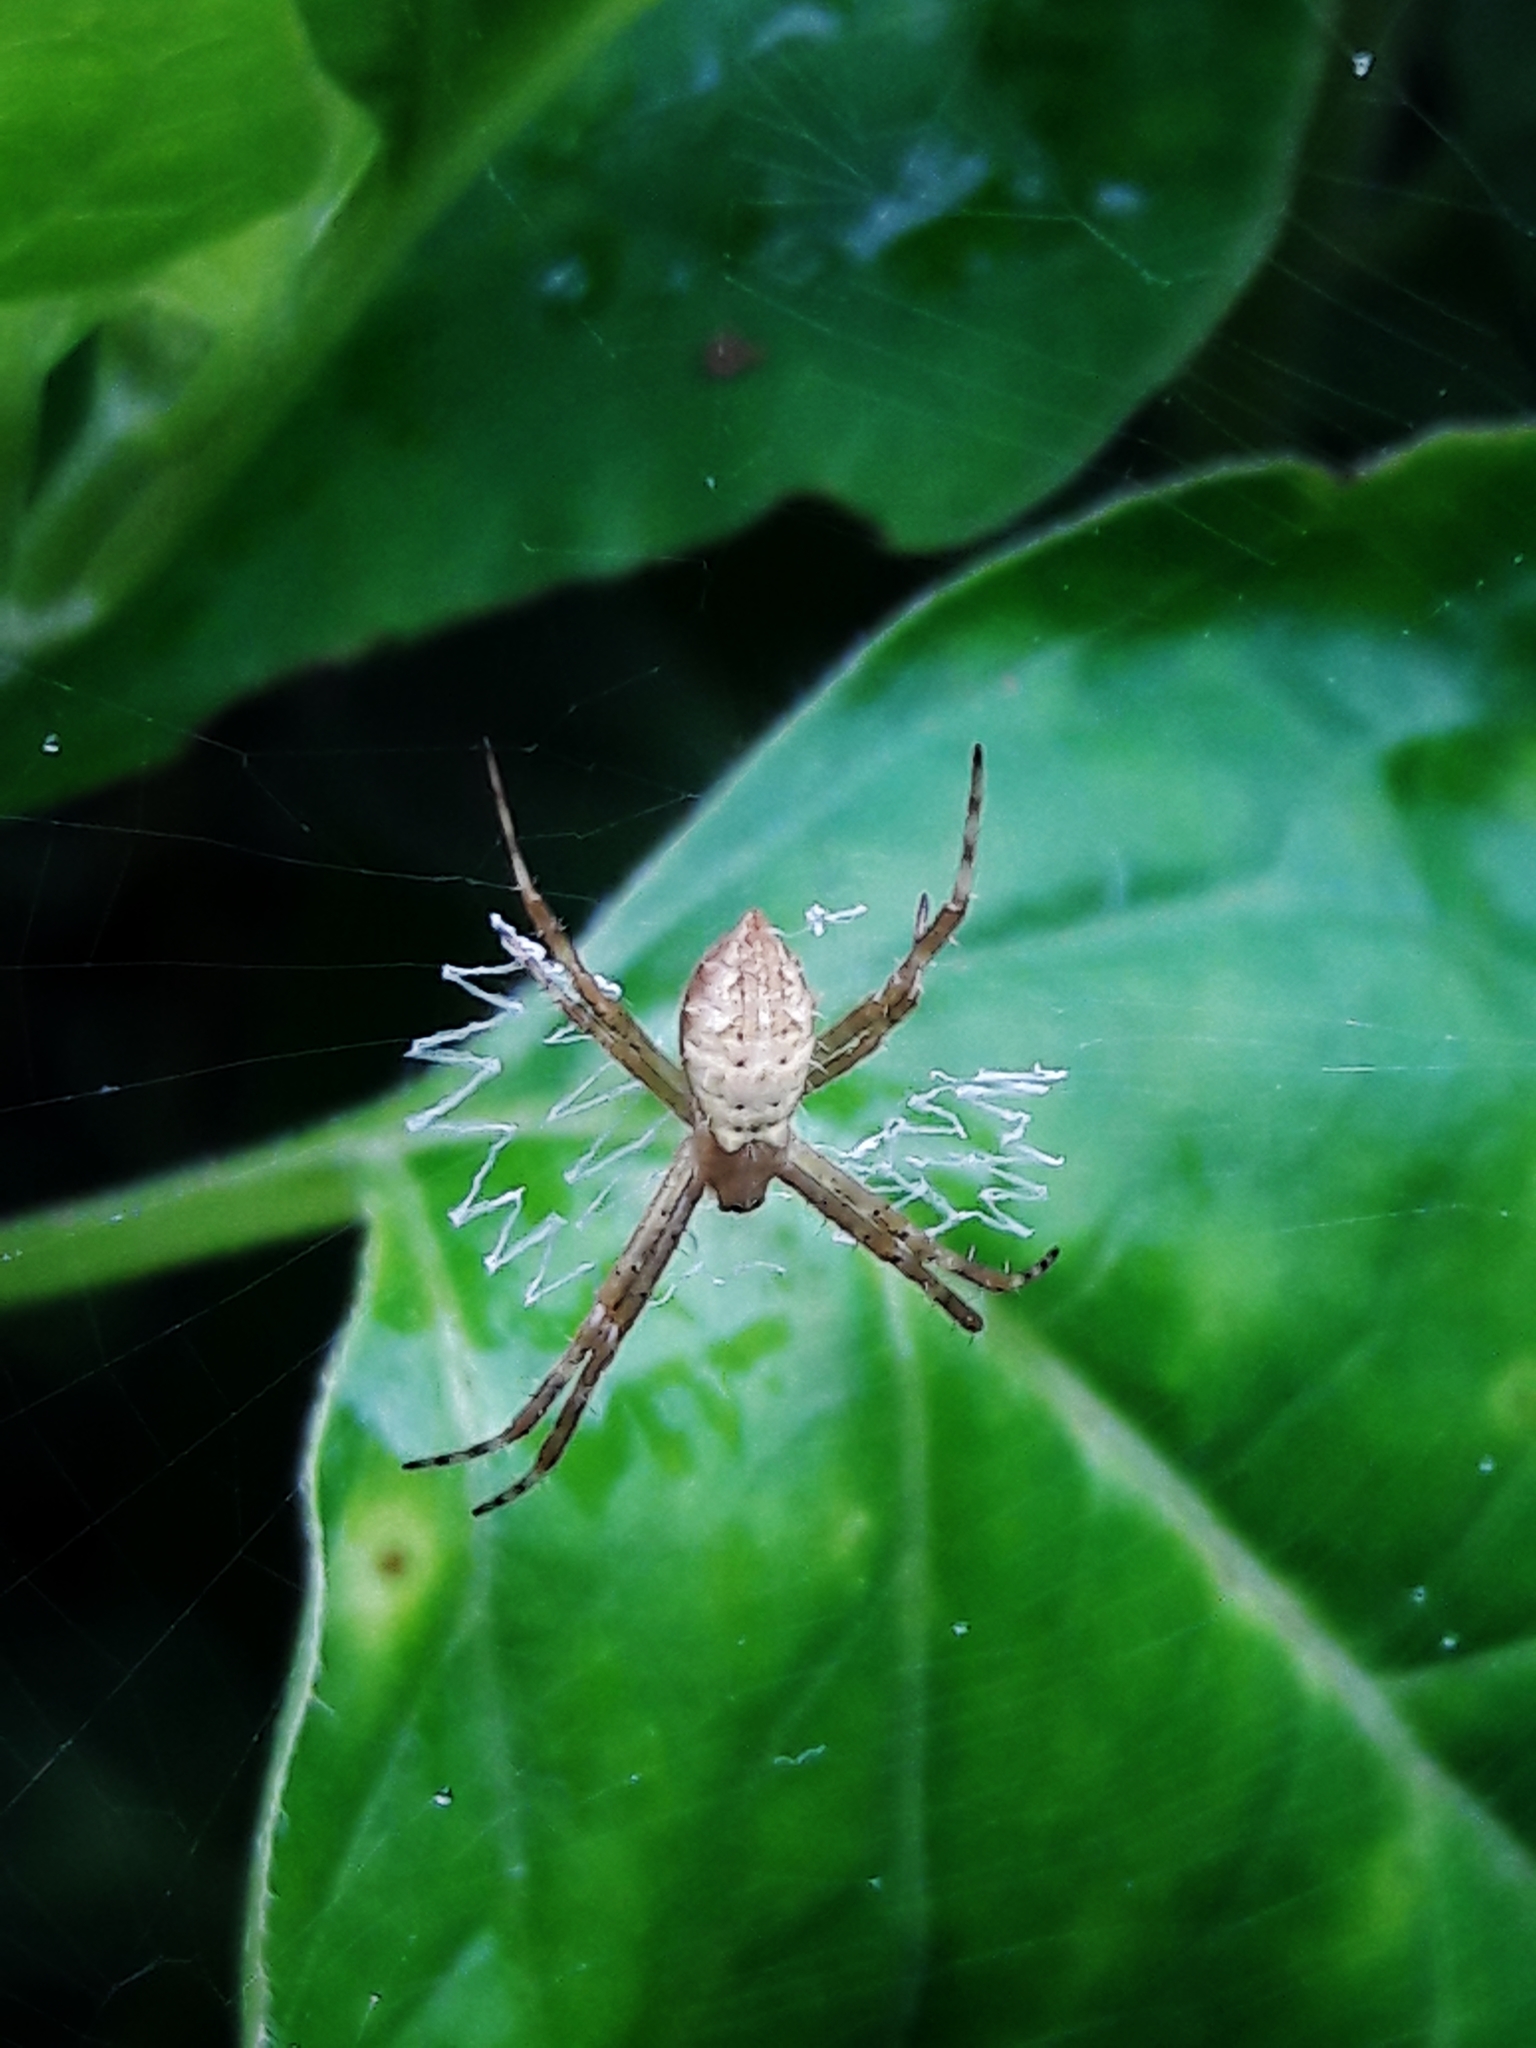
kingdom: Animalia
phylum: Arthropoda
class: Arachnida
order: Araneae
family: Araneidae
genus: Argiope
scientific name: Argiope argentata
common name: Orb weavers
